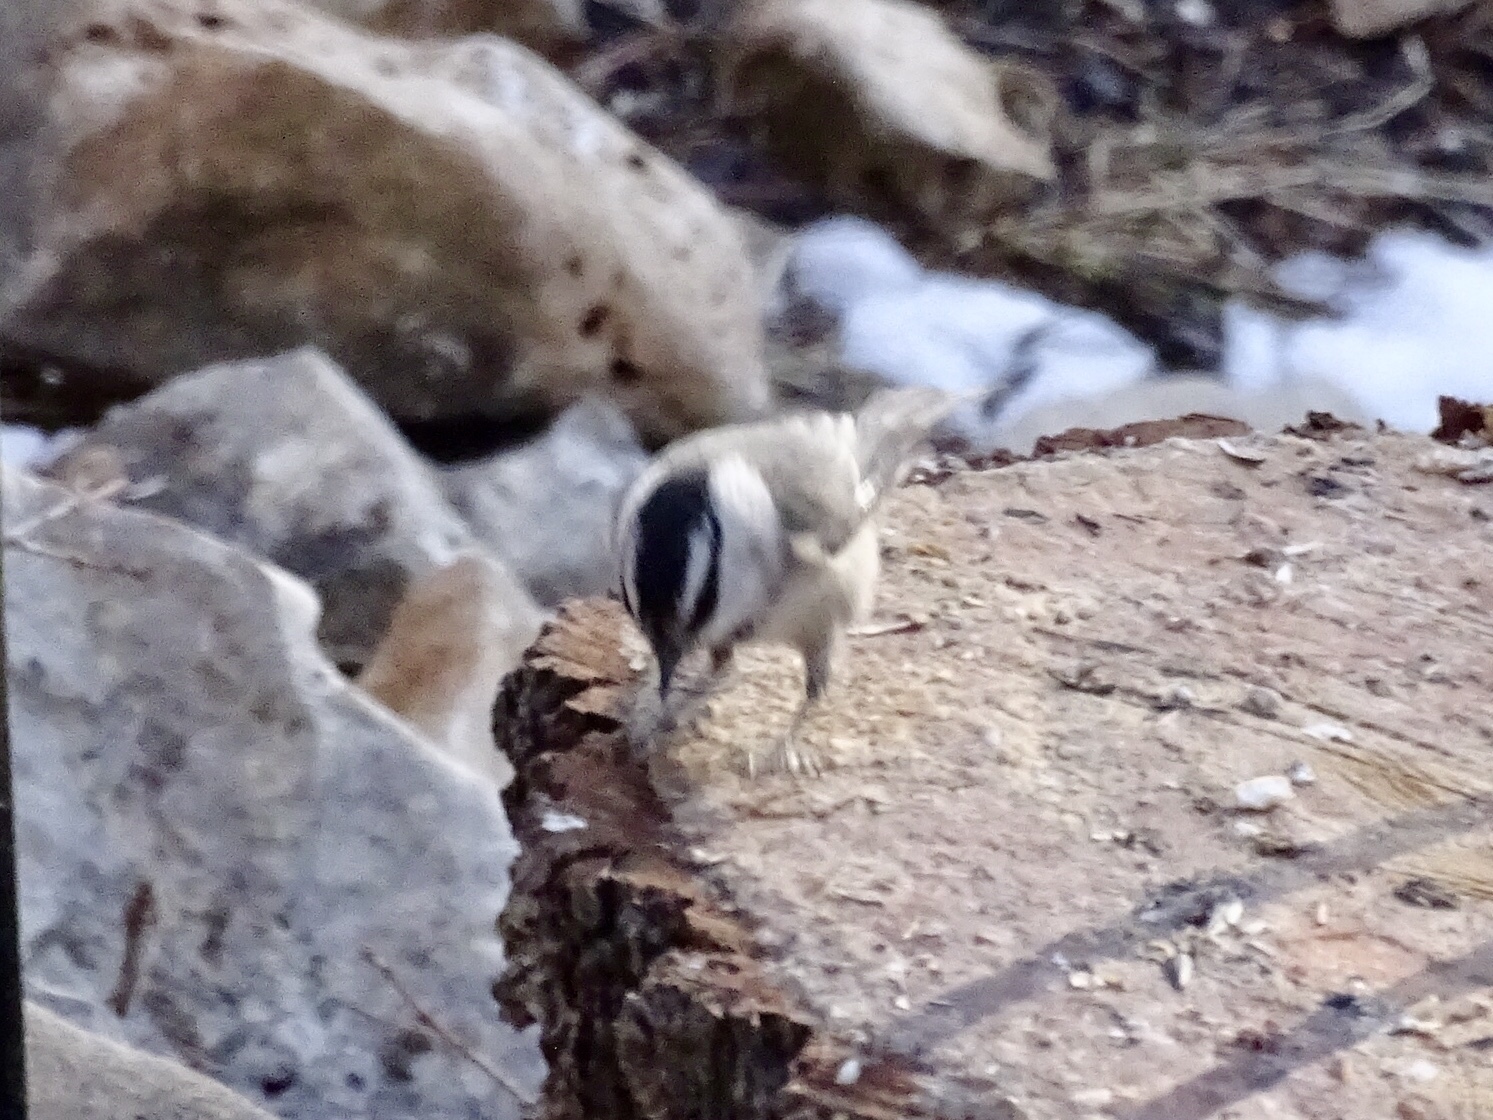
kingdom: Animalia
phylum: Chordata
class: Aves
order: Passeriformes
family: Paridae
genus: Poecile
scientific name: Poecile gambeli
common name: Mountain chickadee
